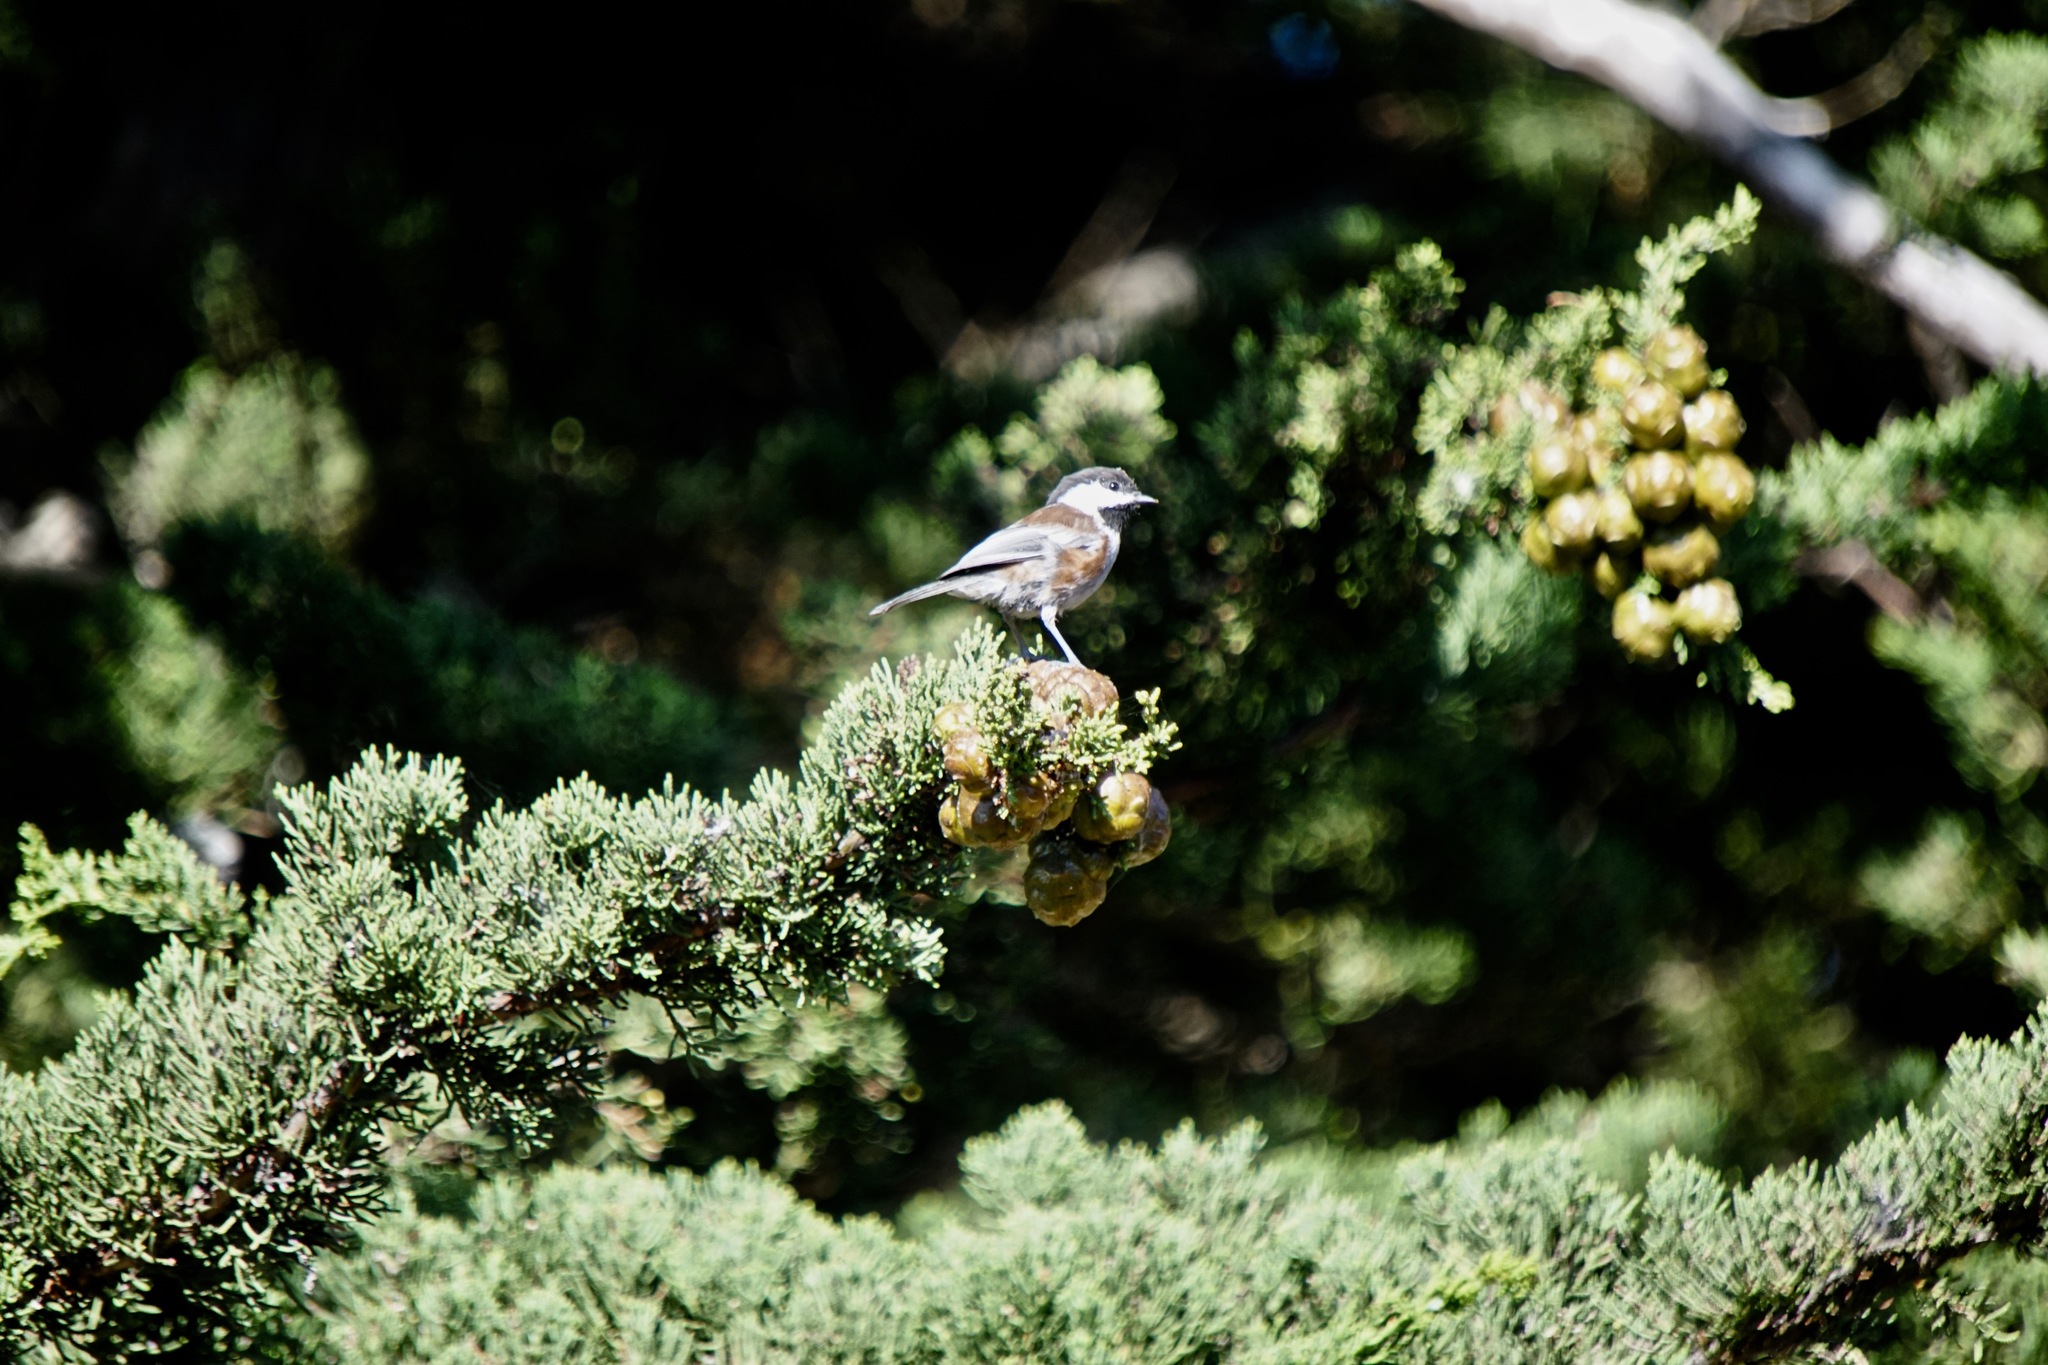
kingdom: Animalia
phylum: Chordata
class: Aves
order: Passeriformes
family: Paridae
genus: Poecile
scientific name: Poecile rufescens
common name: Chestnut-backed chickadee
